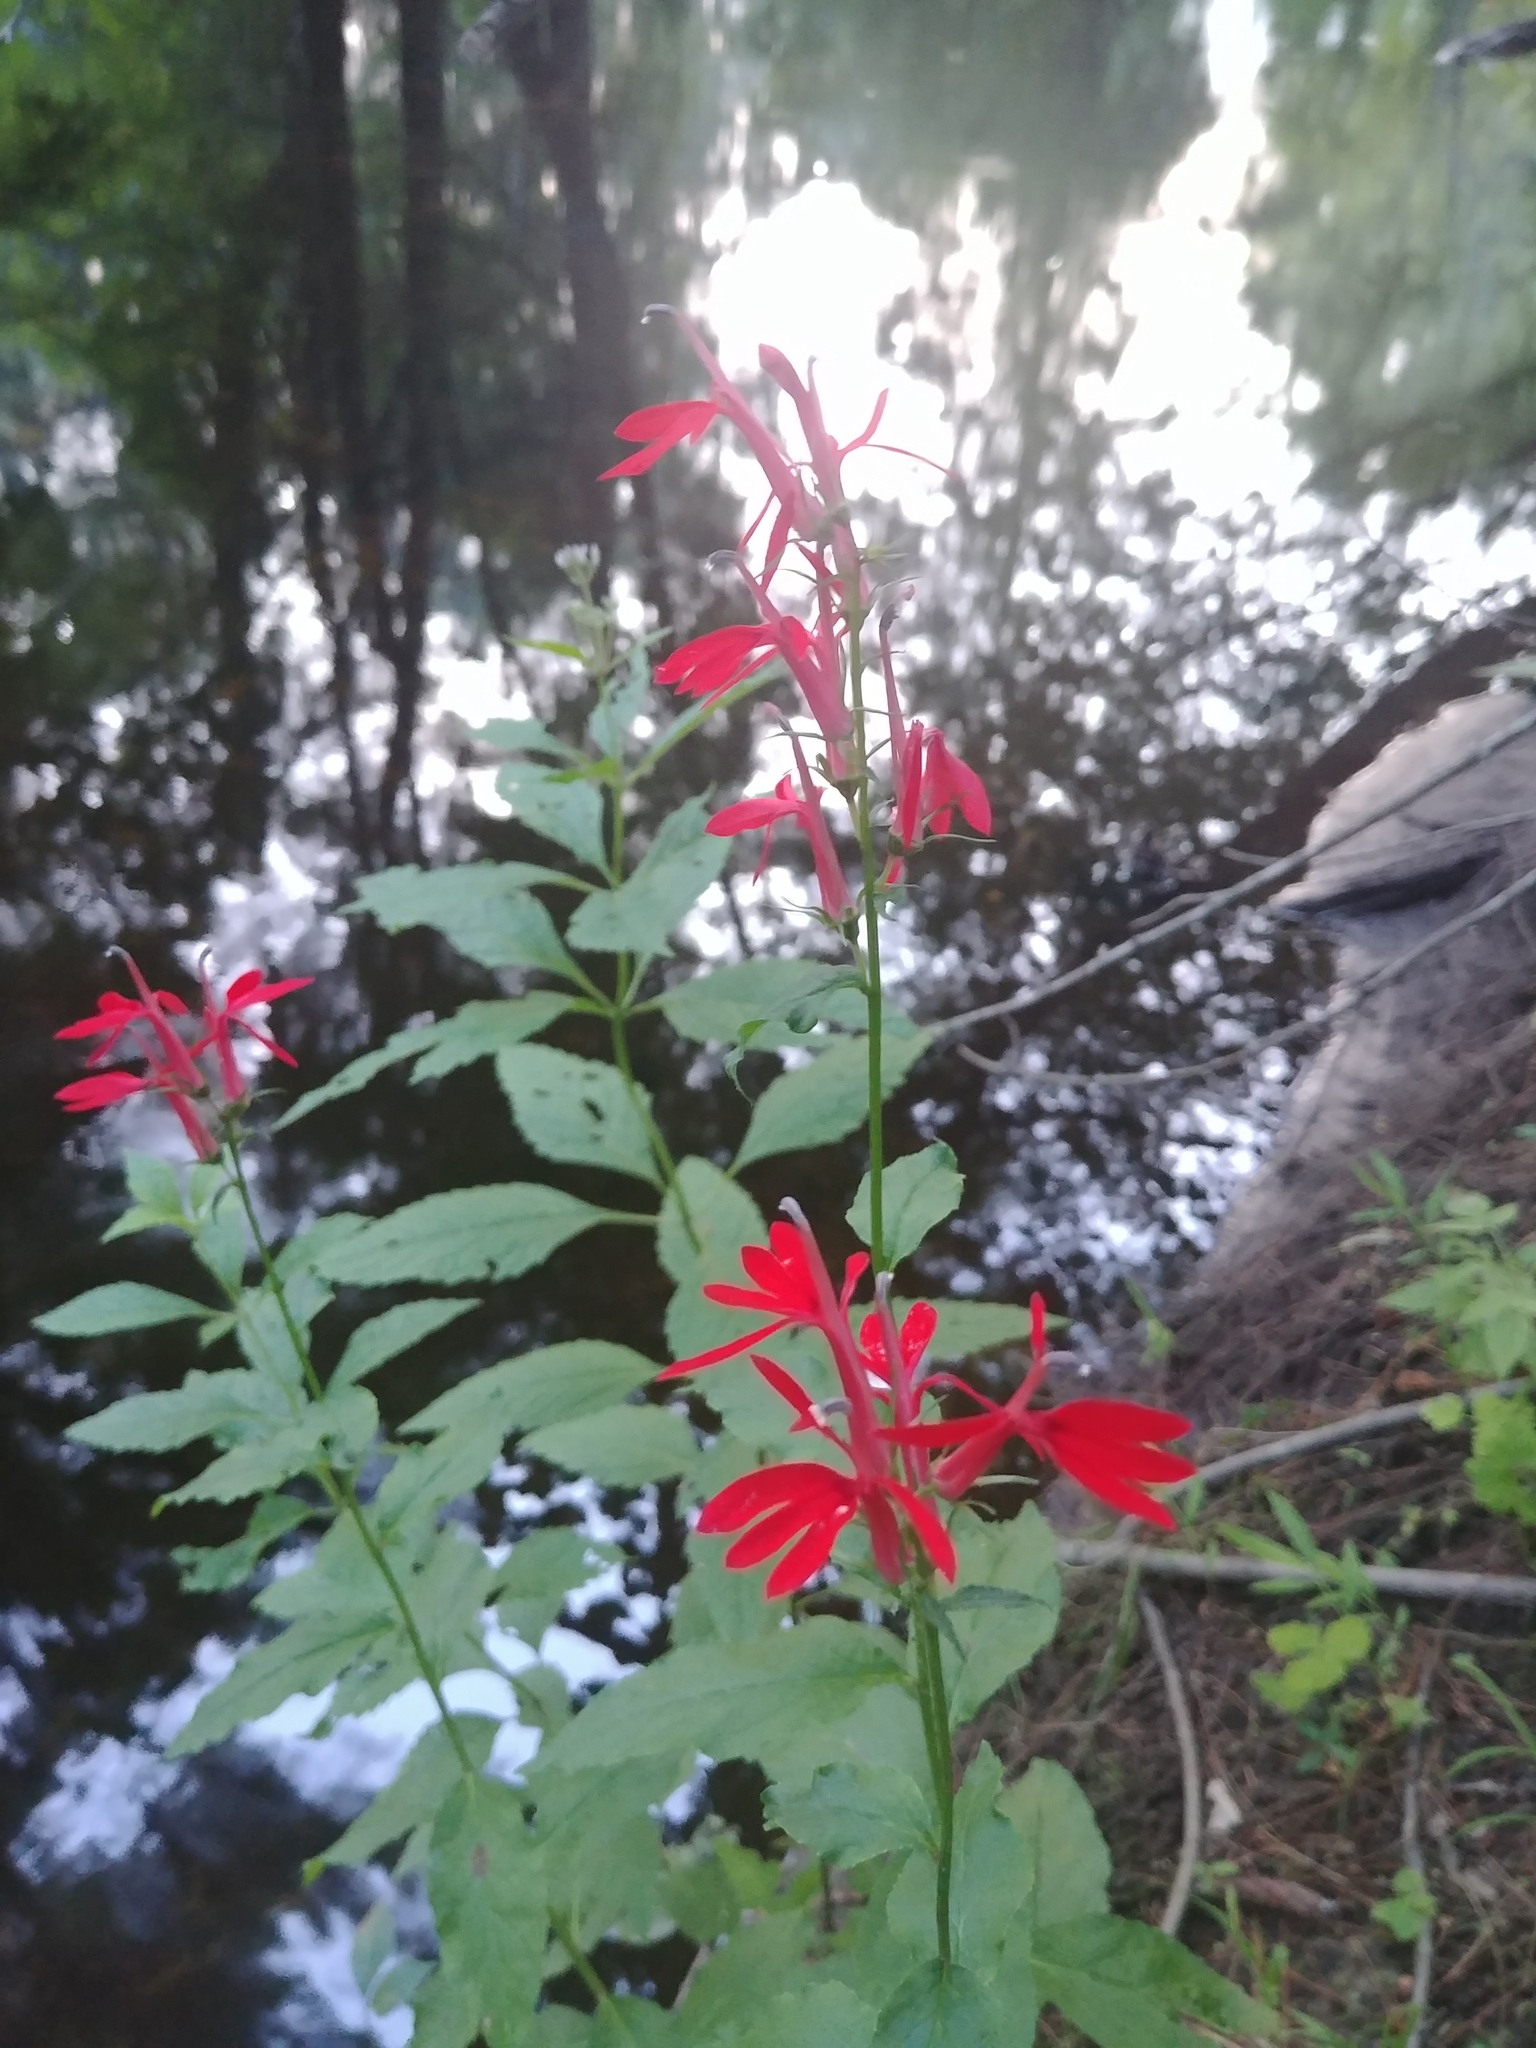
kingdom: Plantae
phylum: Tracheophyta
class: Magnoliopsida
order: Asterales
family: Campanulaceae
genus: Lobelia
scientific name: Lobelia cardinalis
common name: Cardinal flower
